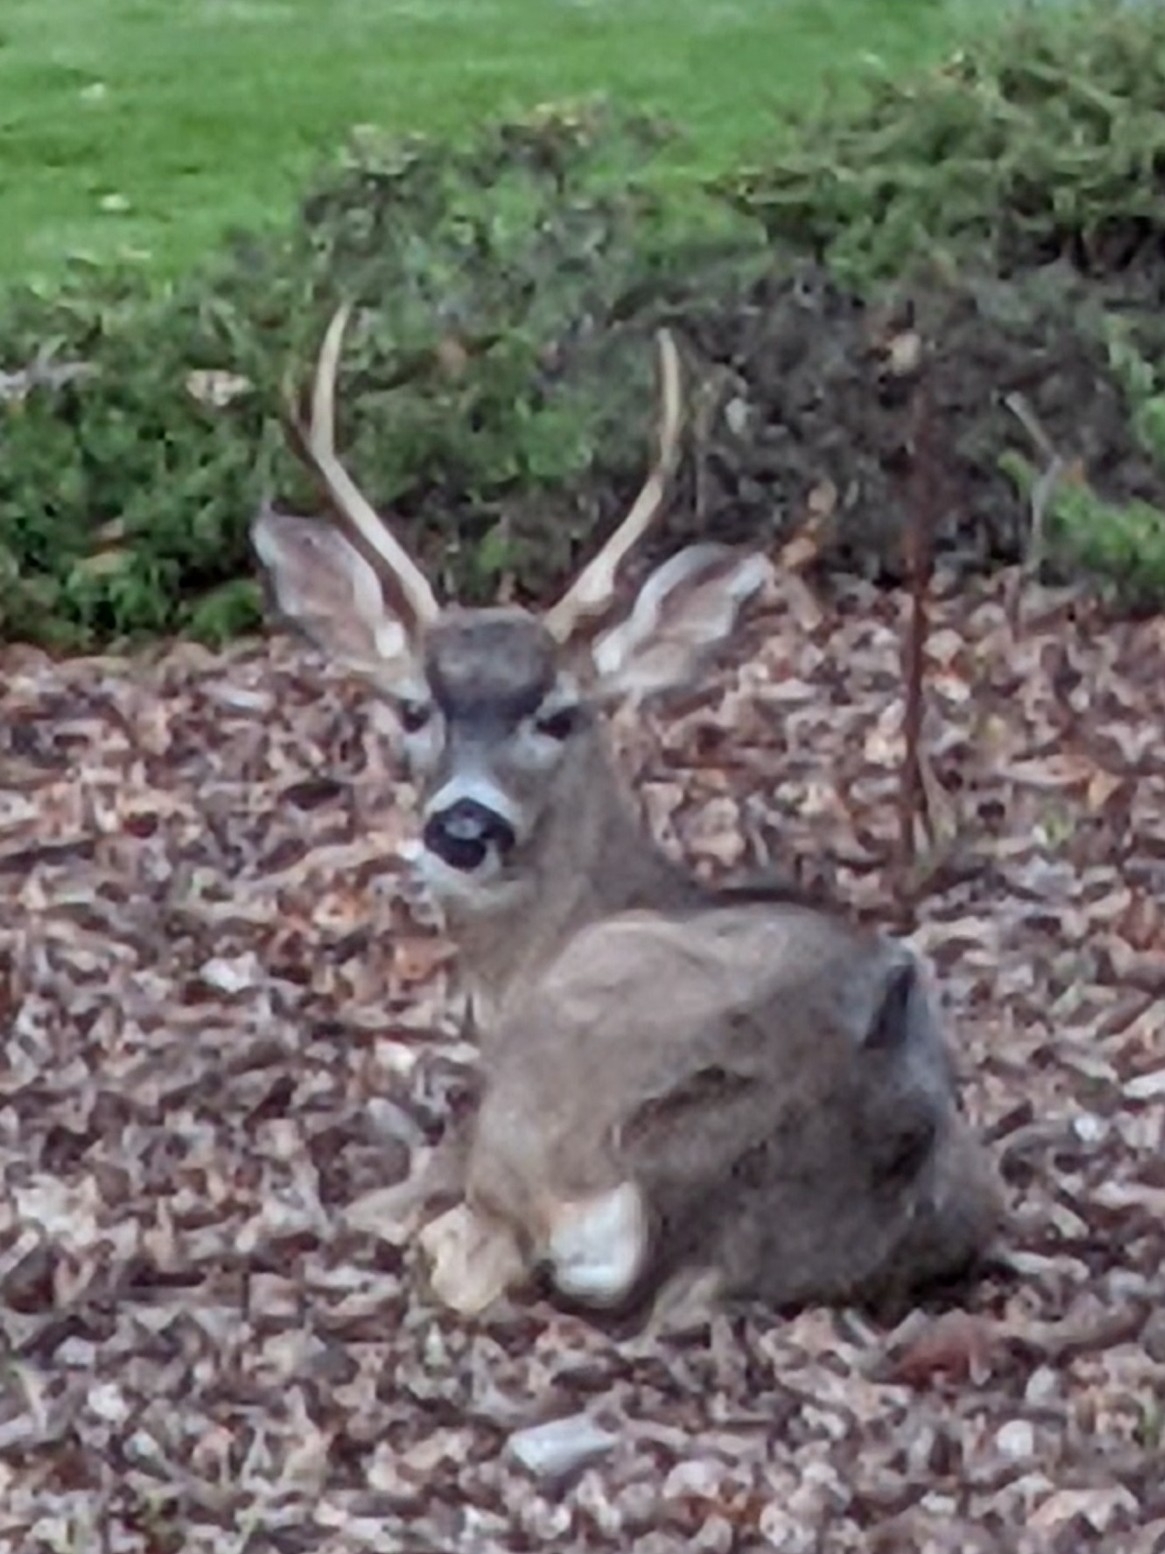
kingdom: Animalia
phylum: Chordata
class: Mammalia
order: Artiodactyla
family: Cervidae
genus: Odocoileus
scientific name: Odocoileus hemionus
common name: Mule deer
